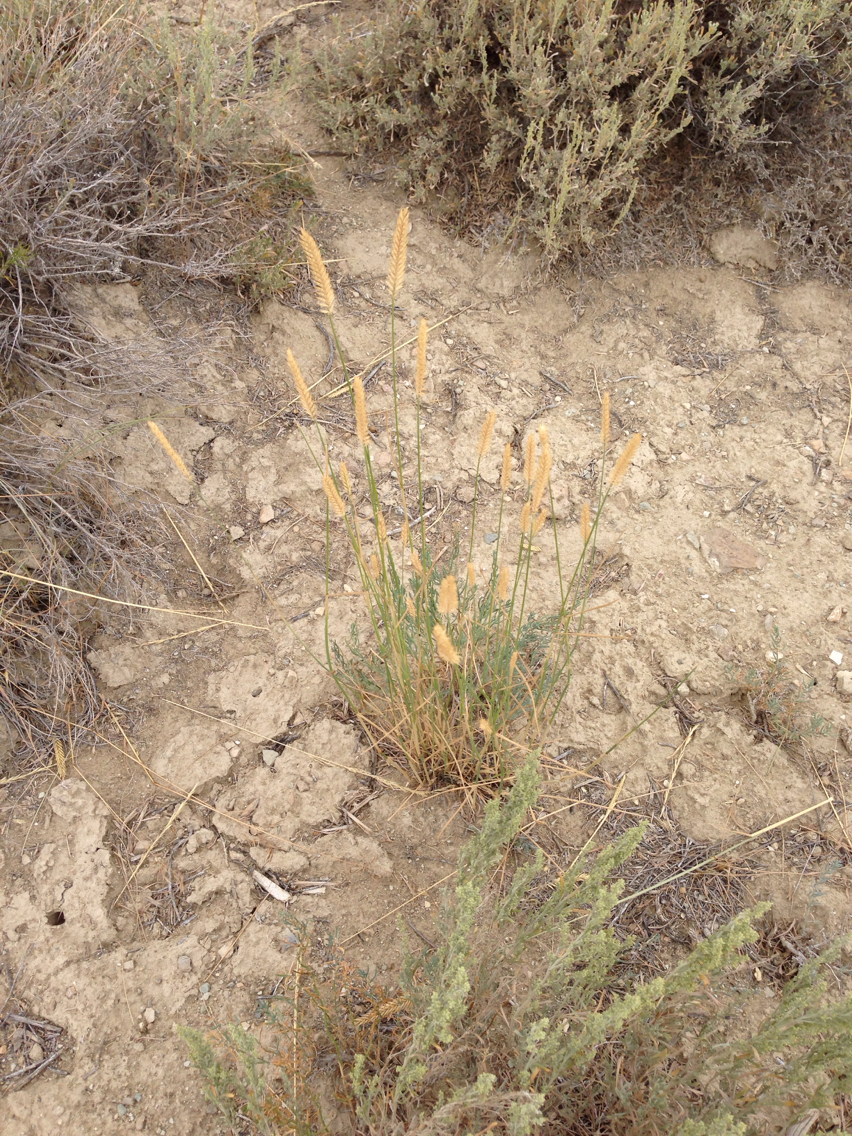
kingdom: Plantae
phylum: Tracheophyta
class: Liliopsida
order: Poales
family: Poaceae
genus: Agropyron
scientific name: Agropyron cristatum
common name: Crested wheatgrass
